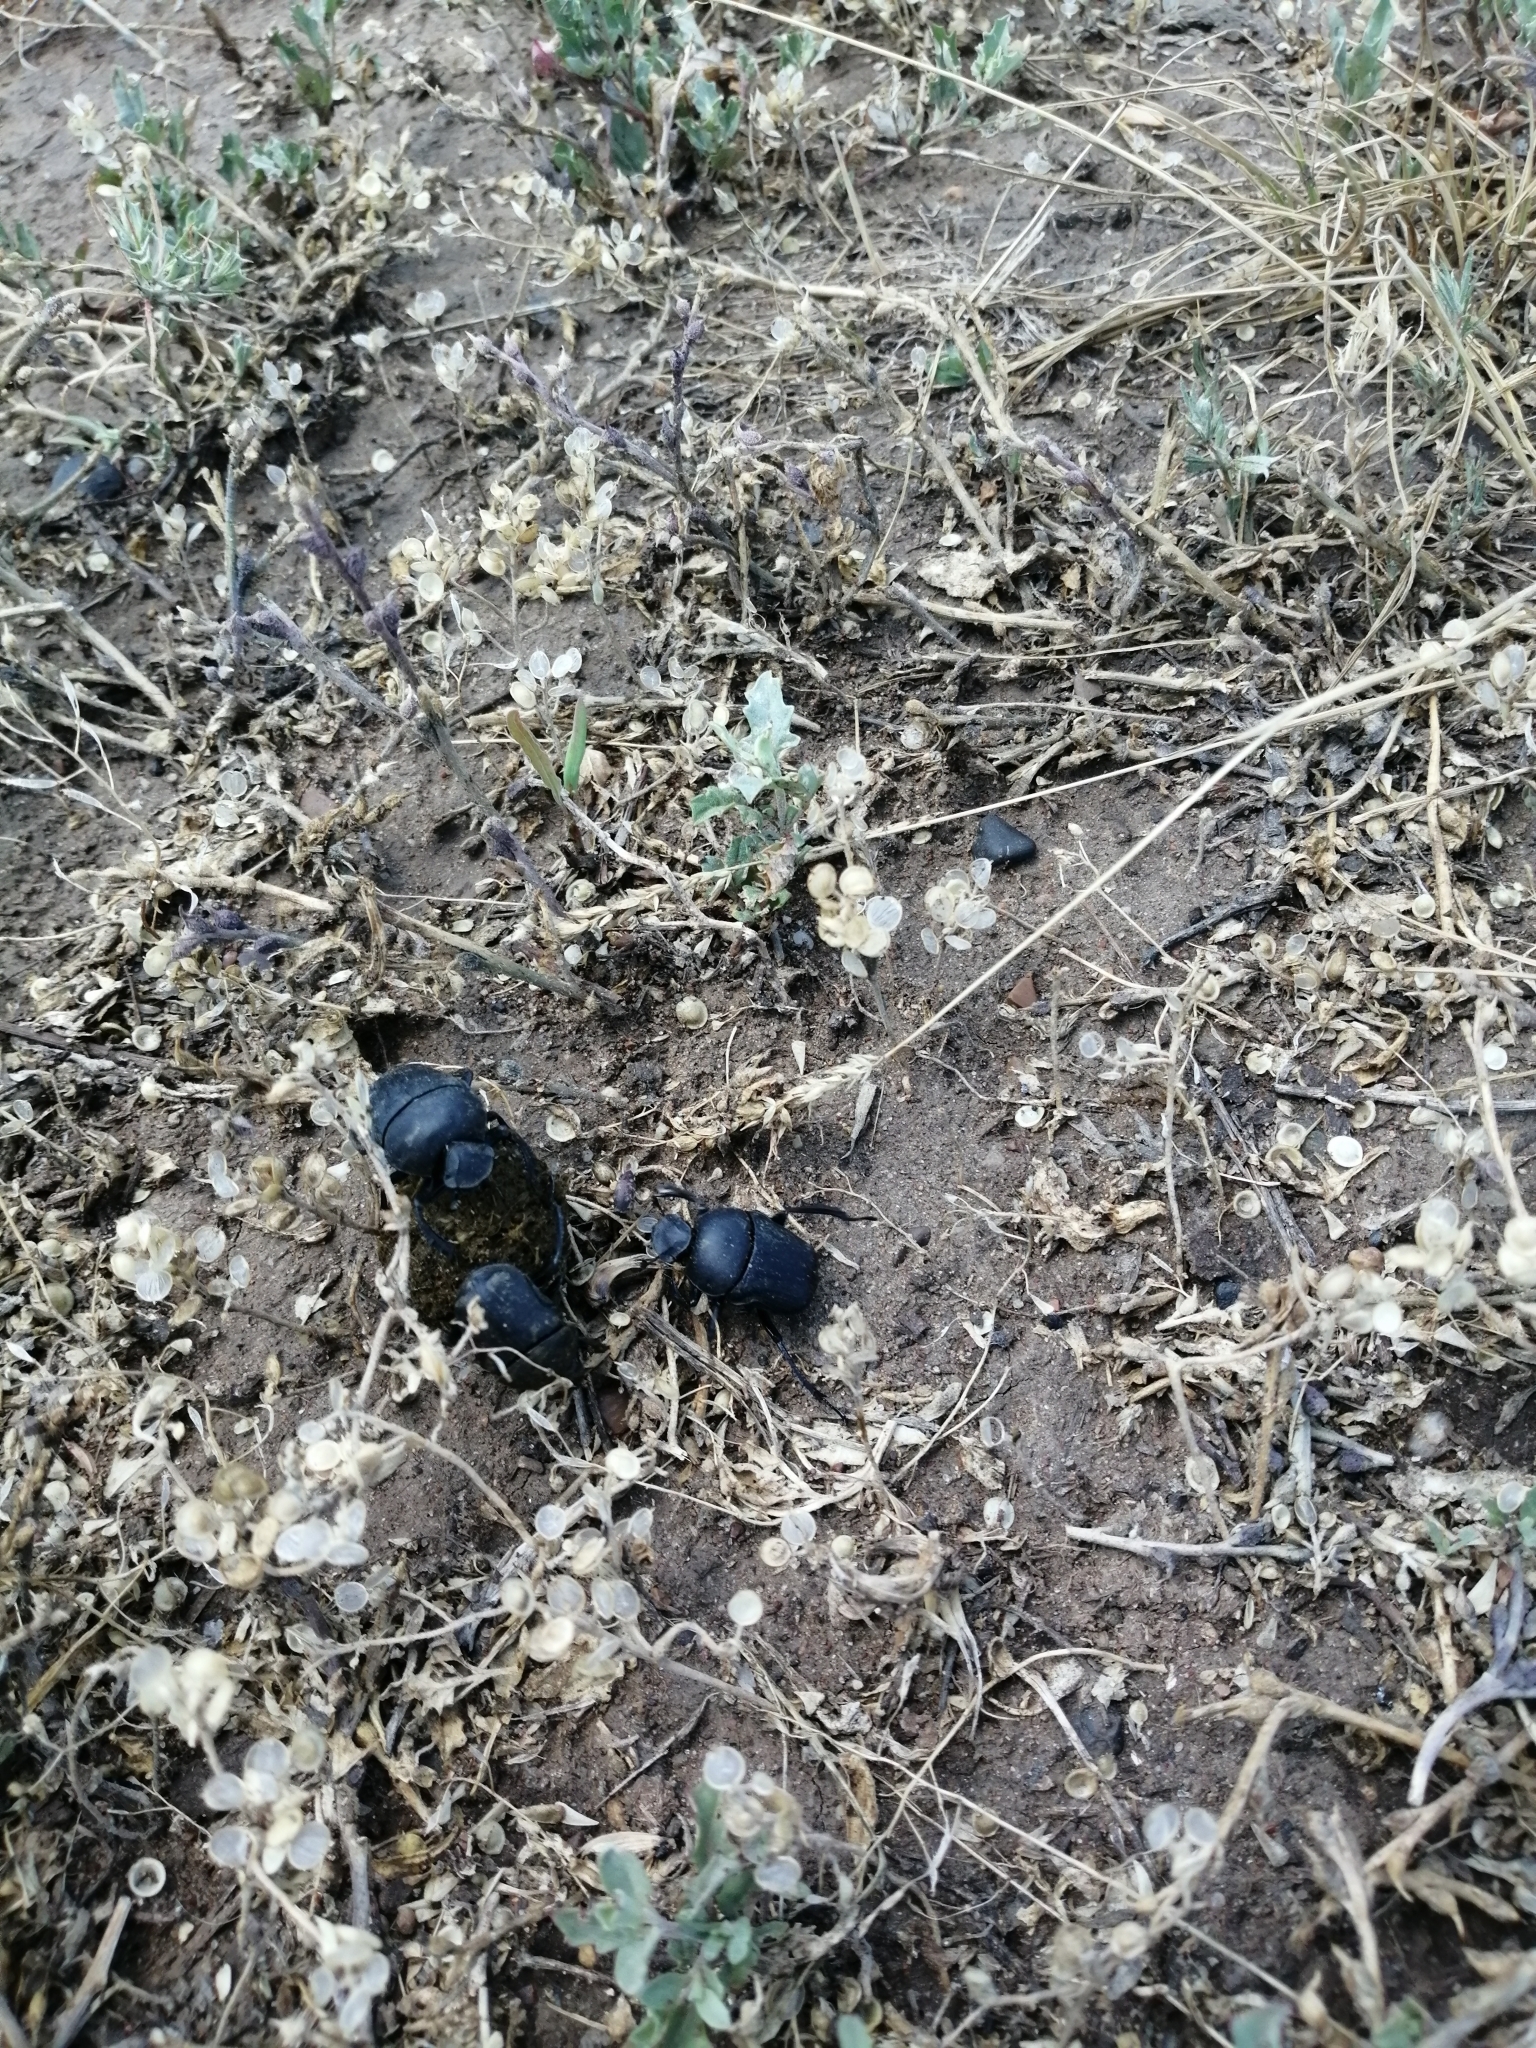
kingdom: Animalia
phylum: Arthropoda
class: Insecta
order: Coleoptera
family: Scarabaeidae
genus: Gymnopleurus
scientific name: Gymnopleurus mopsus
